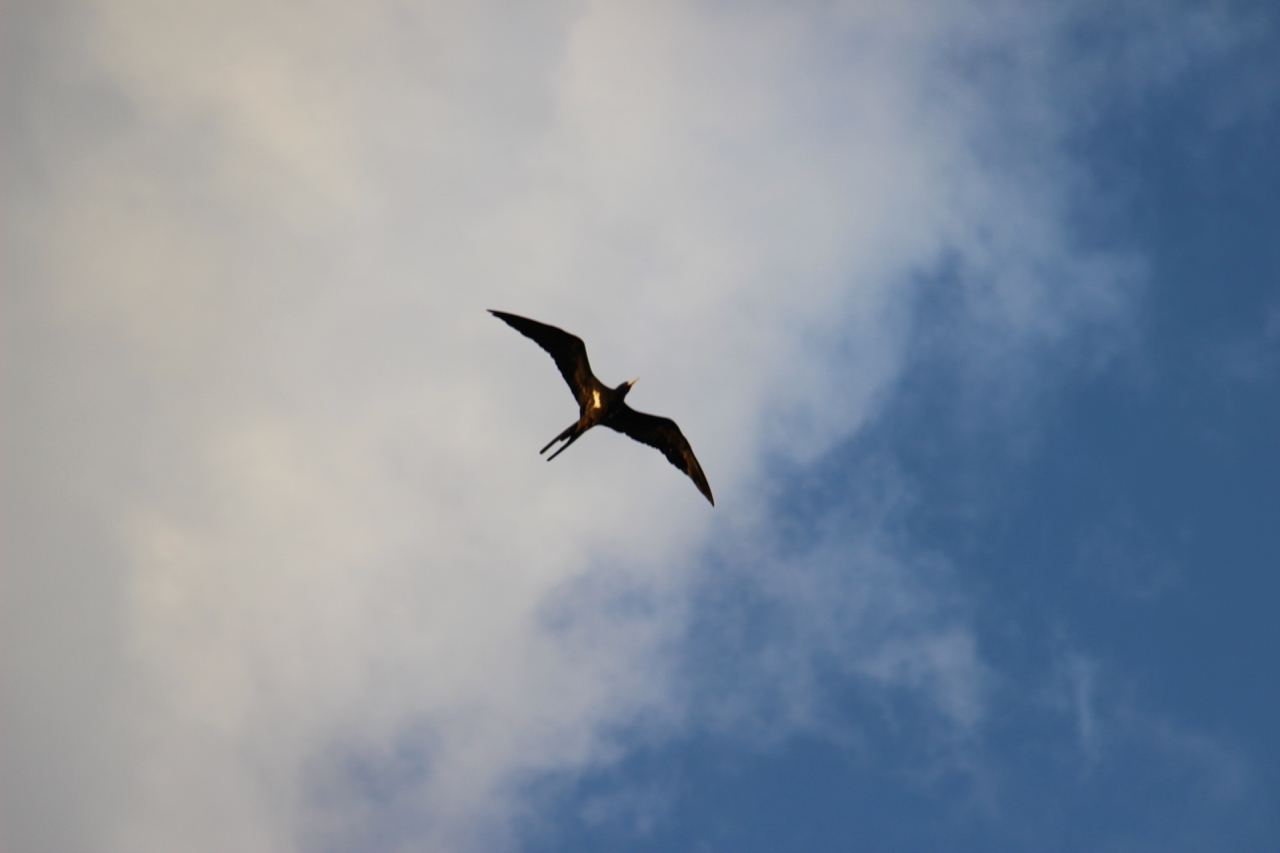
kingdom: Animalia
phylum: Chordata
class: Aves
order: Suliformes
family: Fregatidae
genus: Fregata
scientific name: Fregata ariel
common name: Lesser frigatebird
